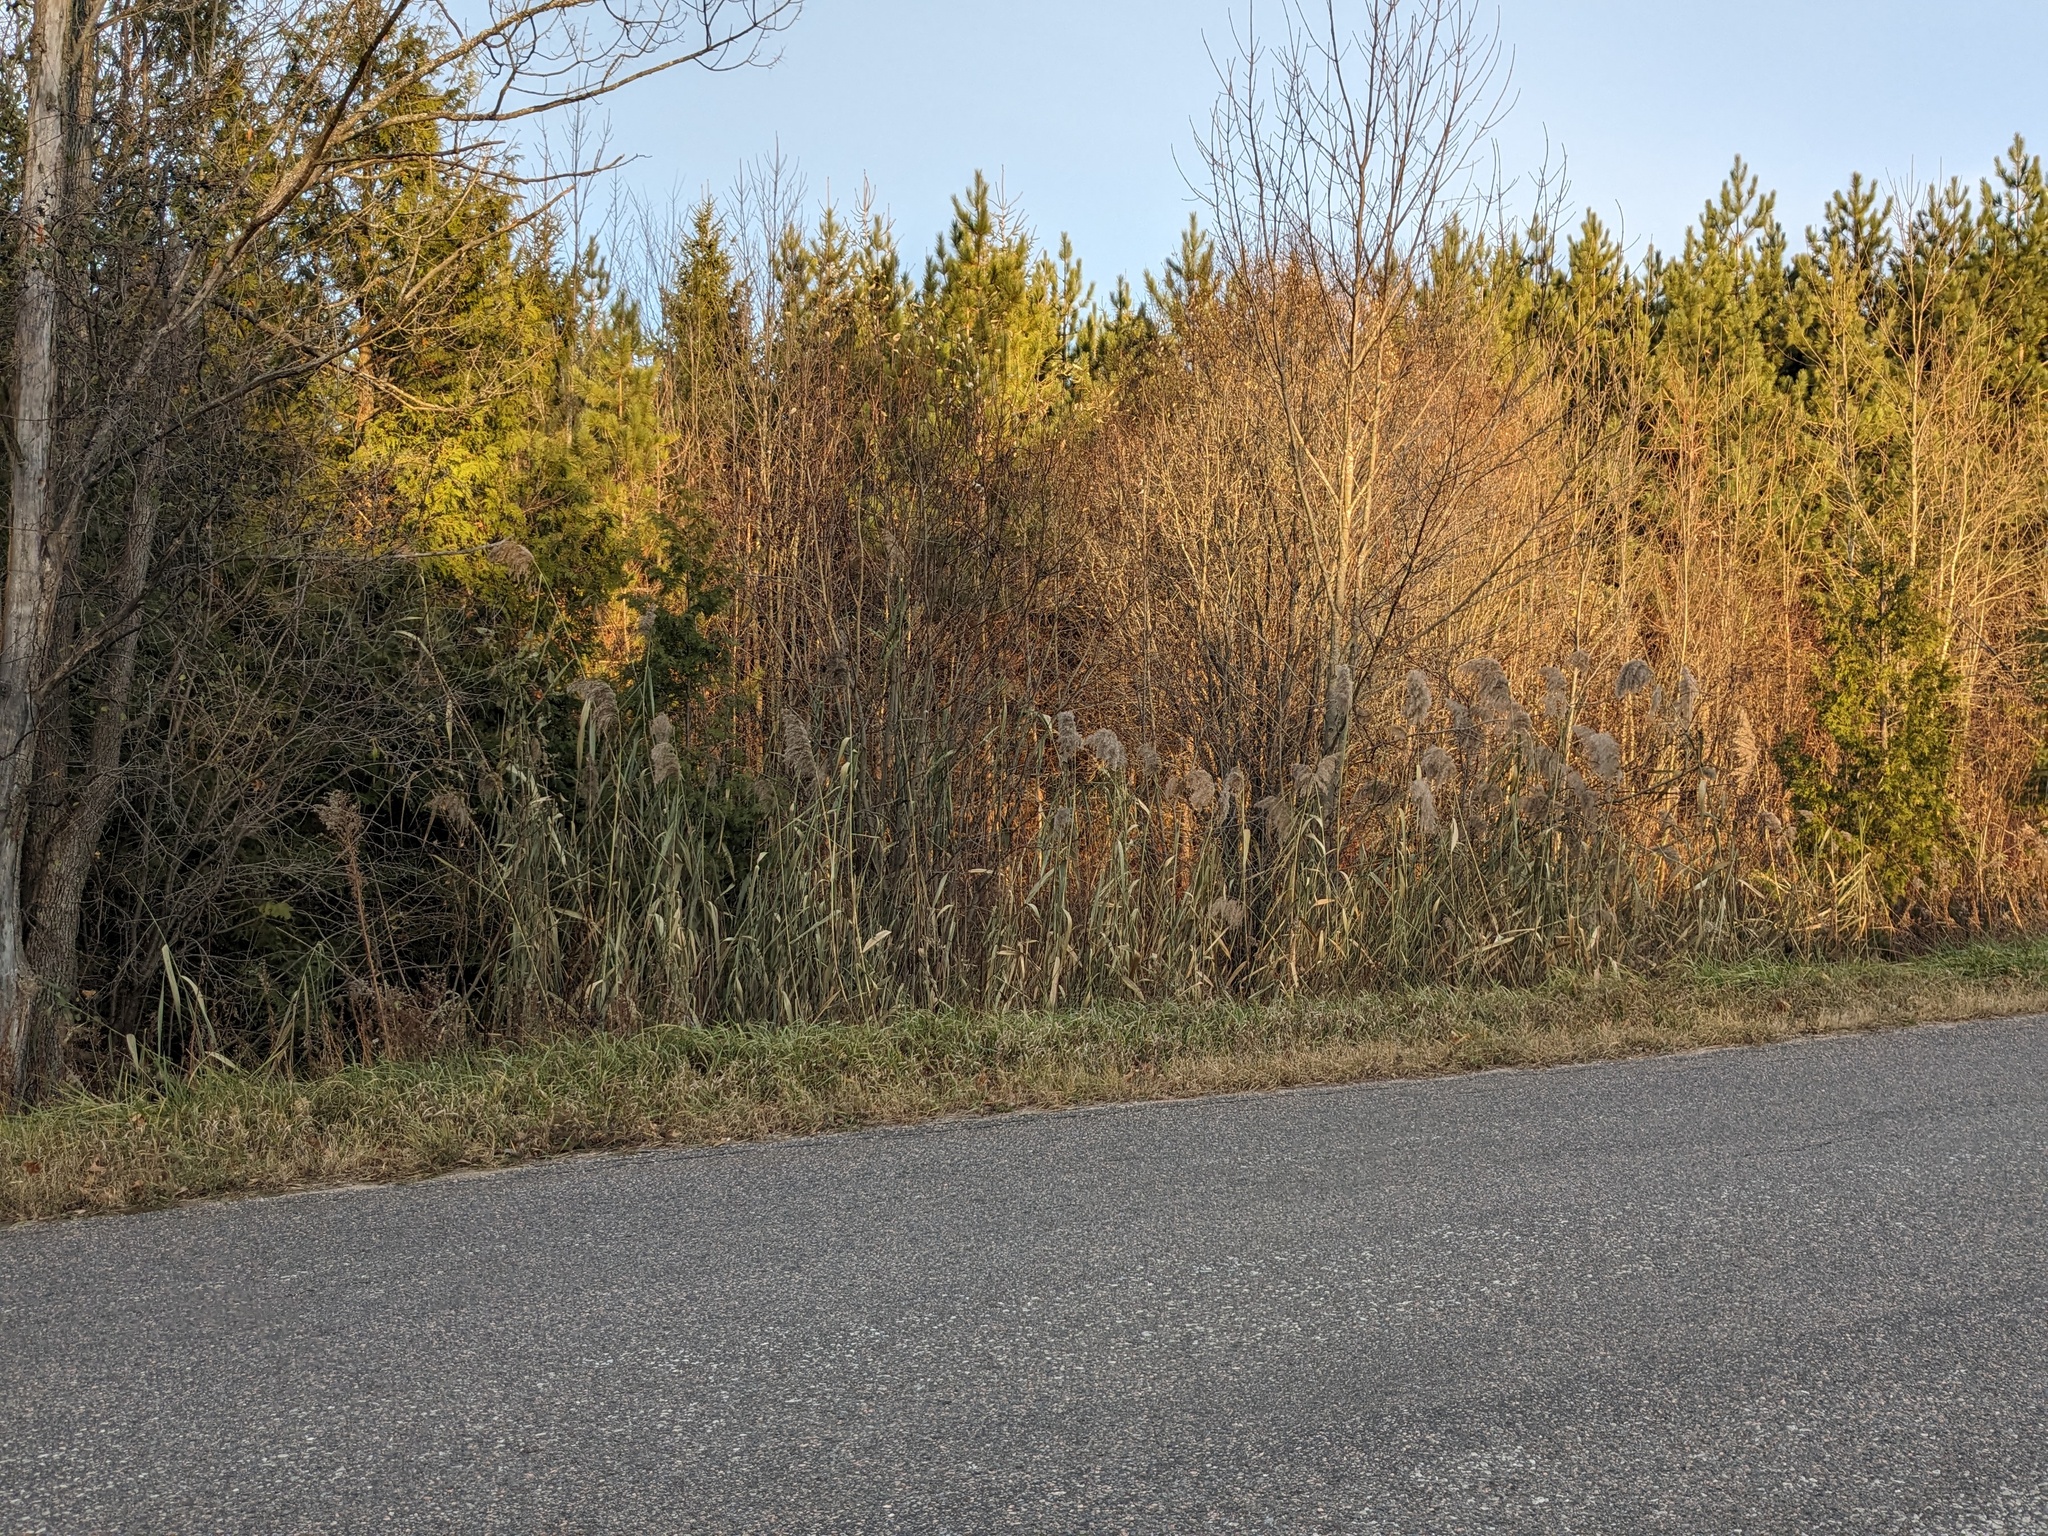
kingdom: Plantae
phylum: Tracheophyta
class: Liliopsida
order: Poales
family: Poaceae
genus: Phragmites
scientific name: Phragmites australis
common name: Common reed
